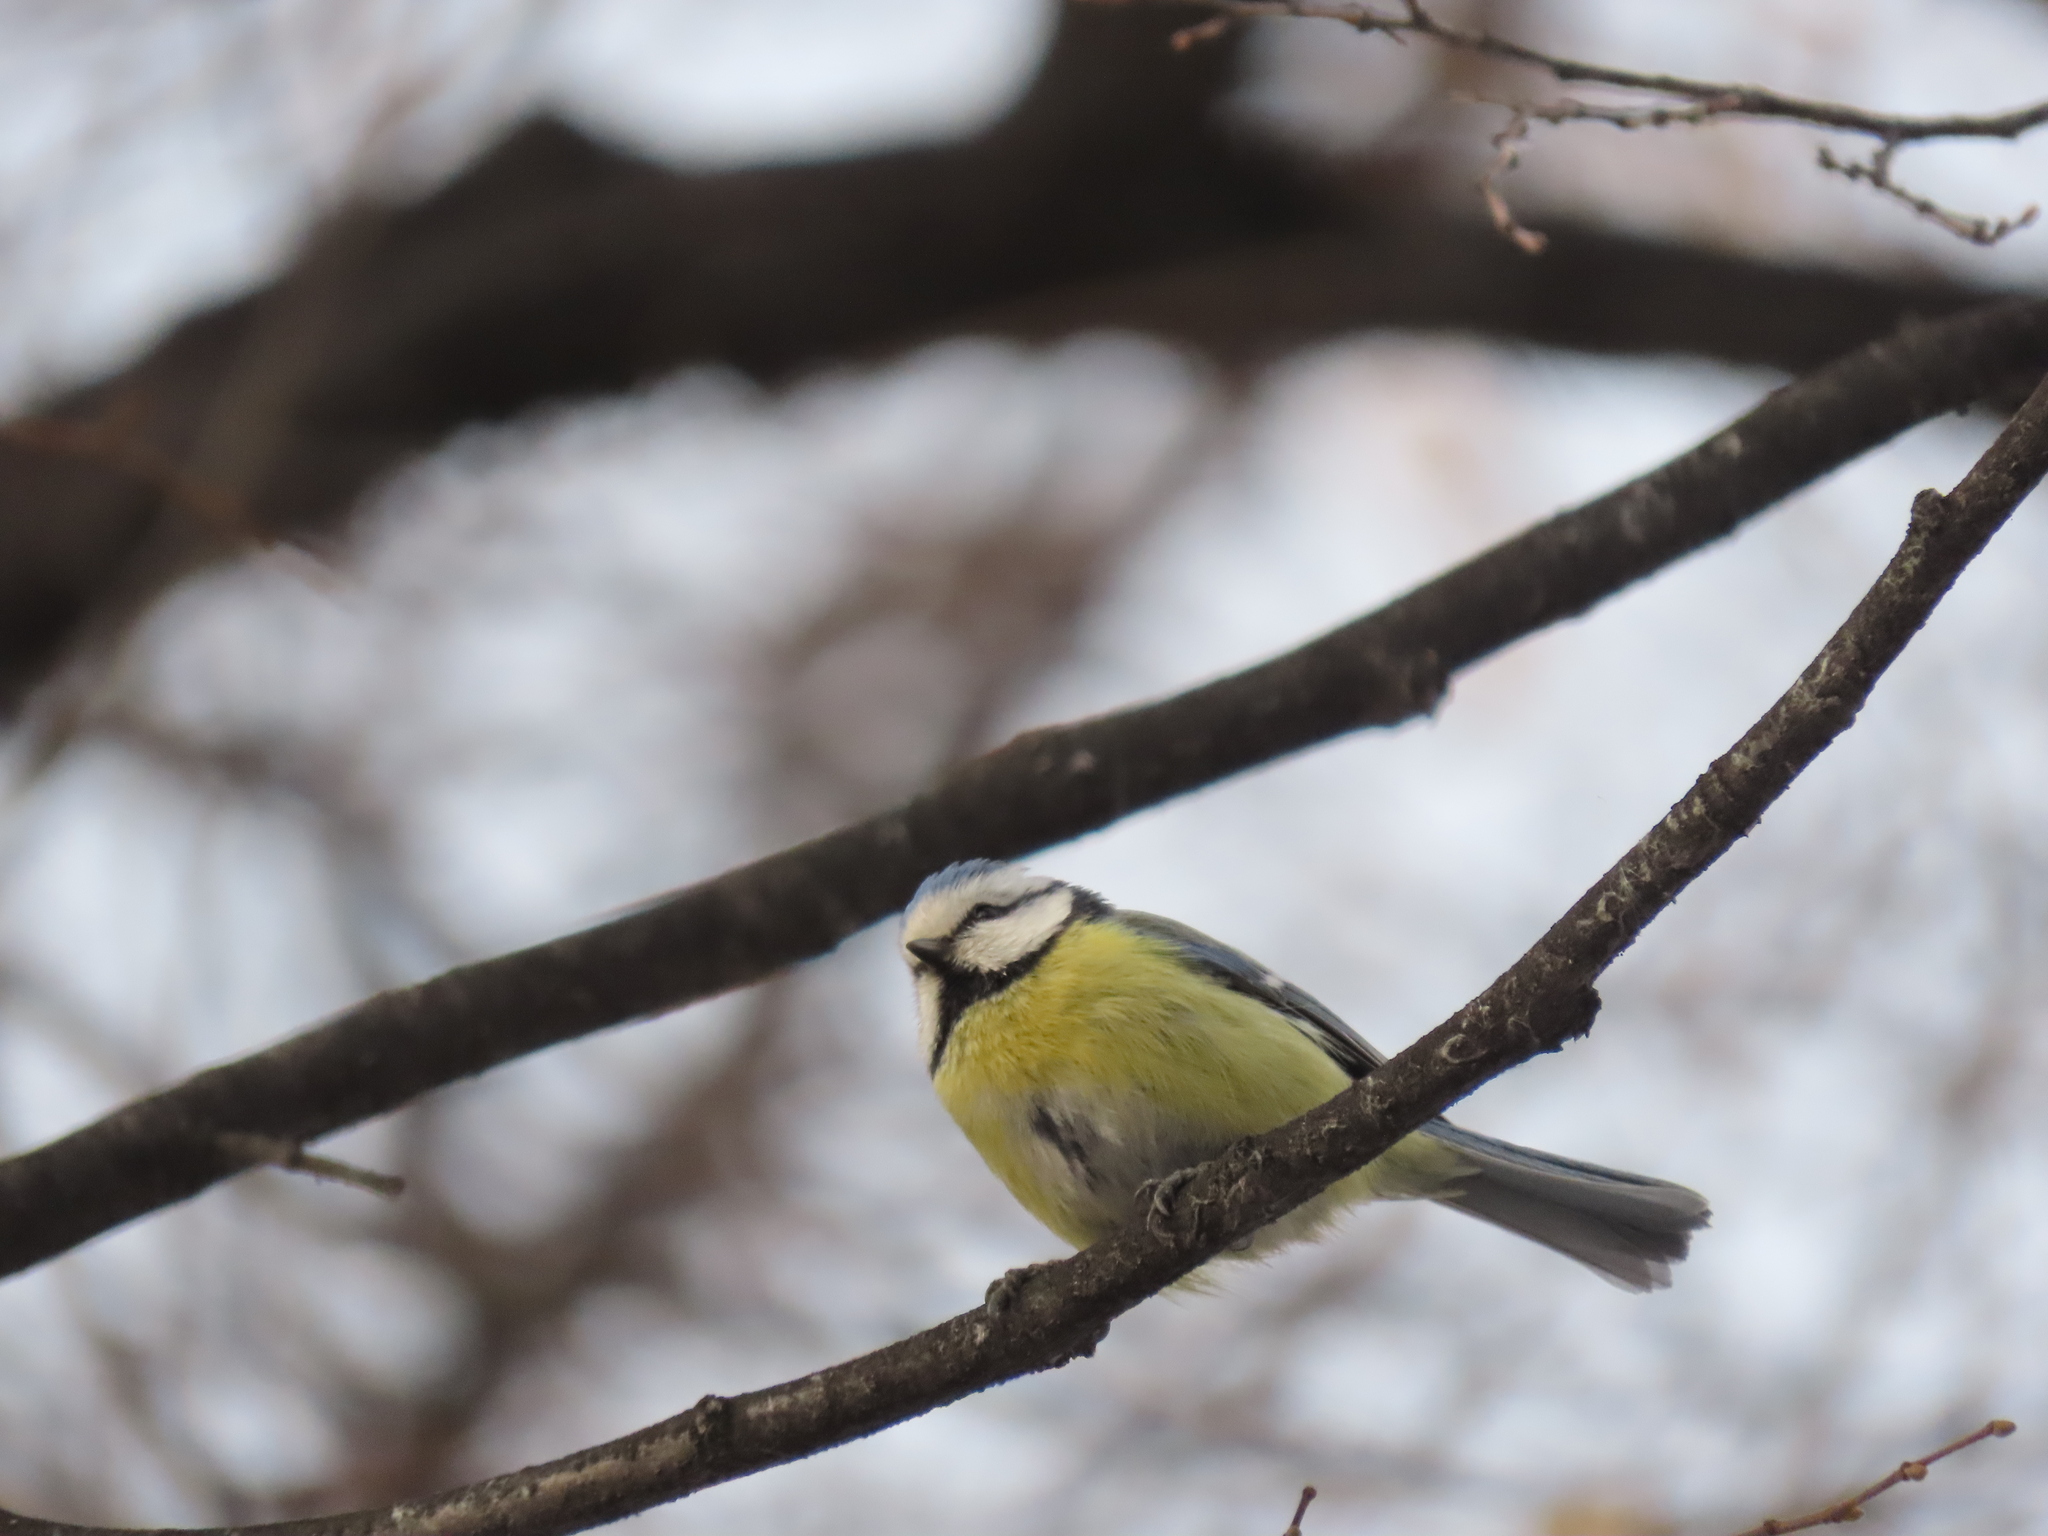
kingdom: Animalia
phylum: Chordata
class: Aves
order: Passeriformes
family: Paridae
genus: Cyanistes
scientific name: Cyanistes caeruleus
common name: Eurasian blue tit
